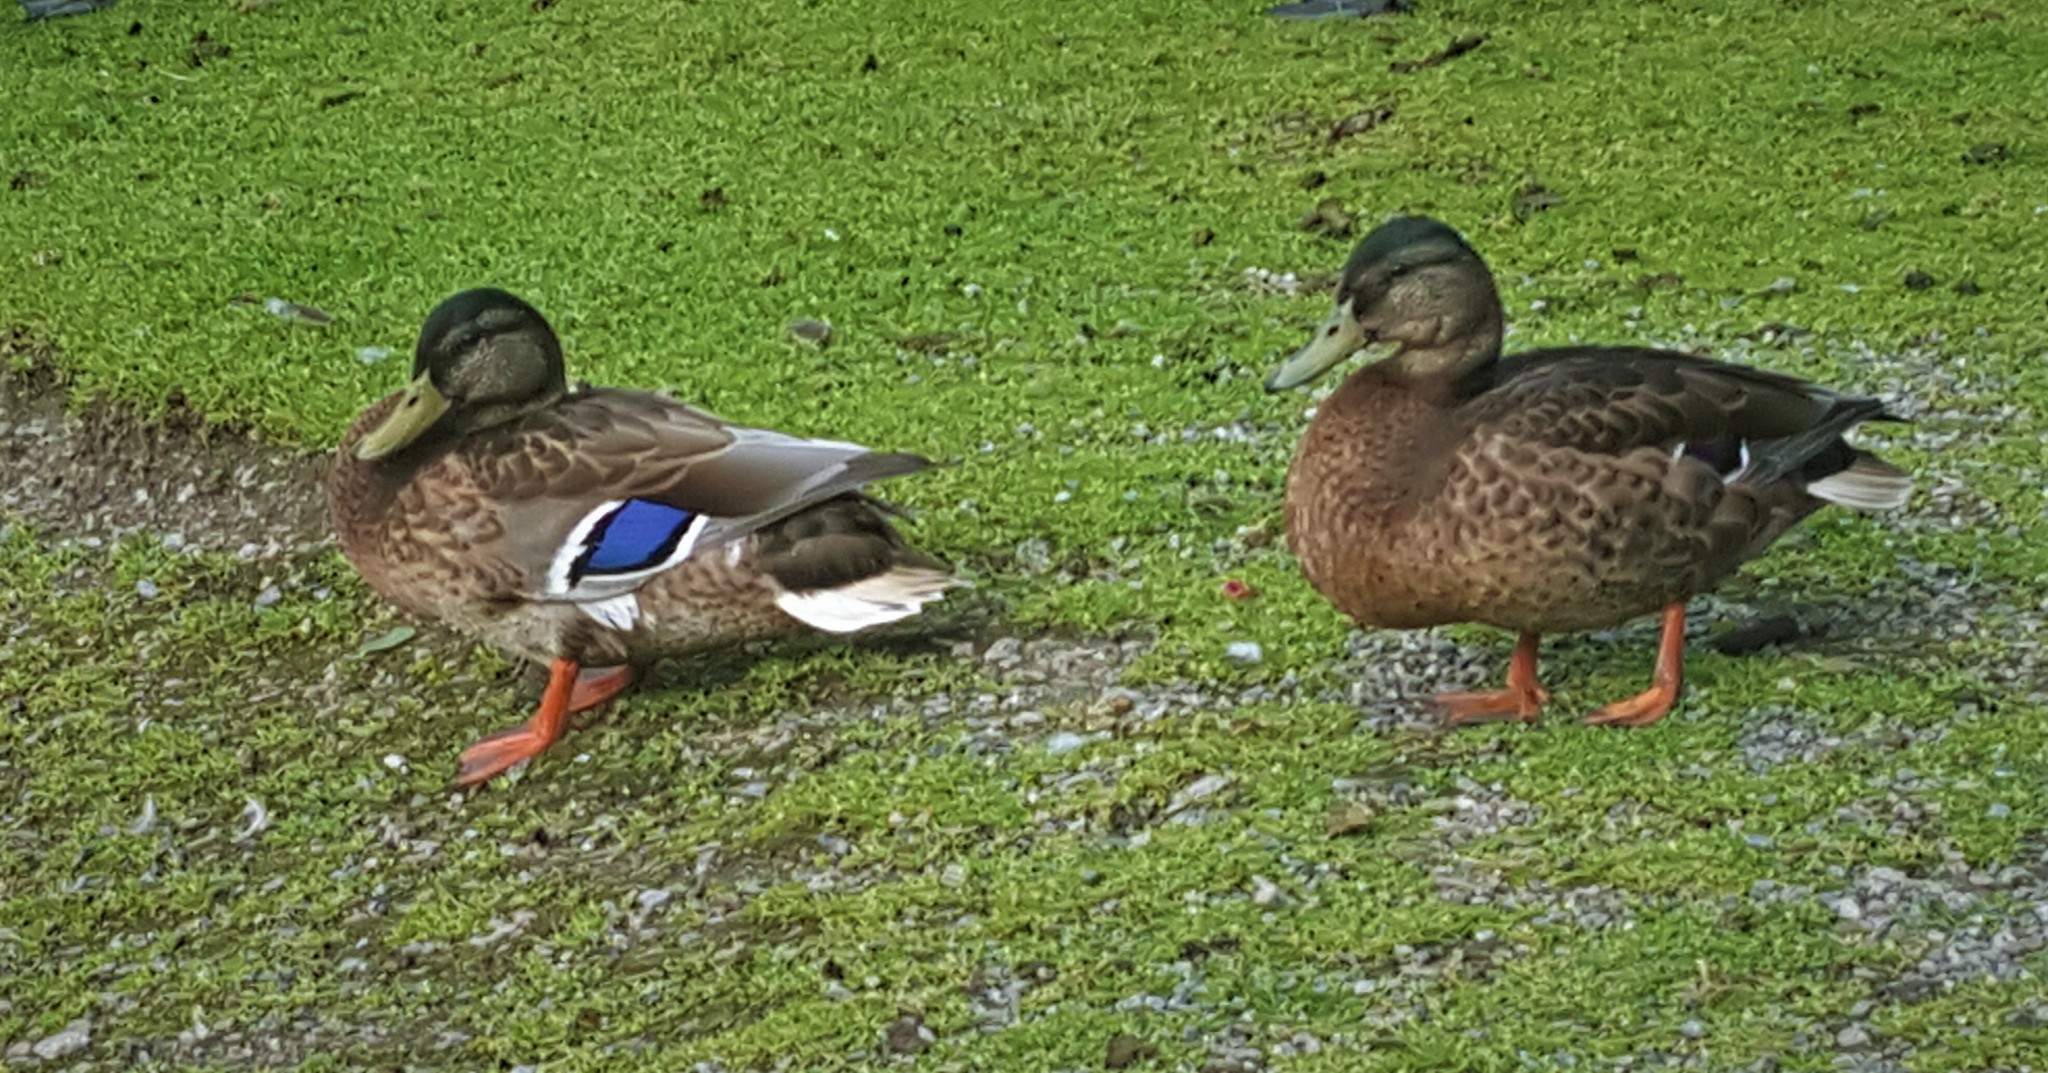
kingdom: Animalia
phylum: Chordata
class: Aves
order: Anseriformes
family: Anatidae
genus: Anas
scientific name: Anas platyrhynchos
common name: Mallard
